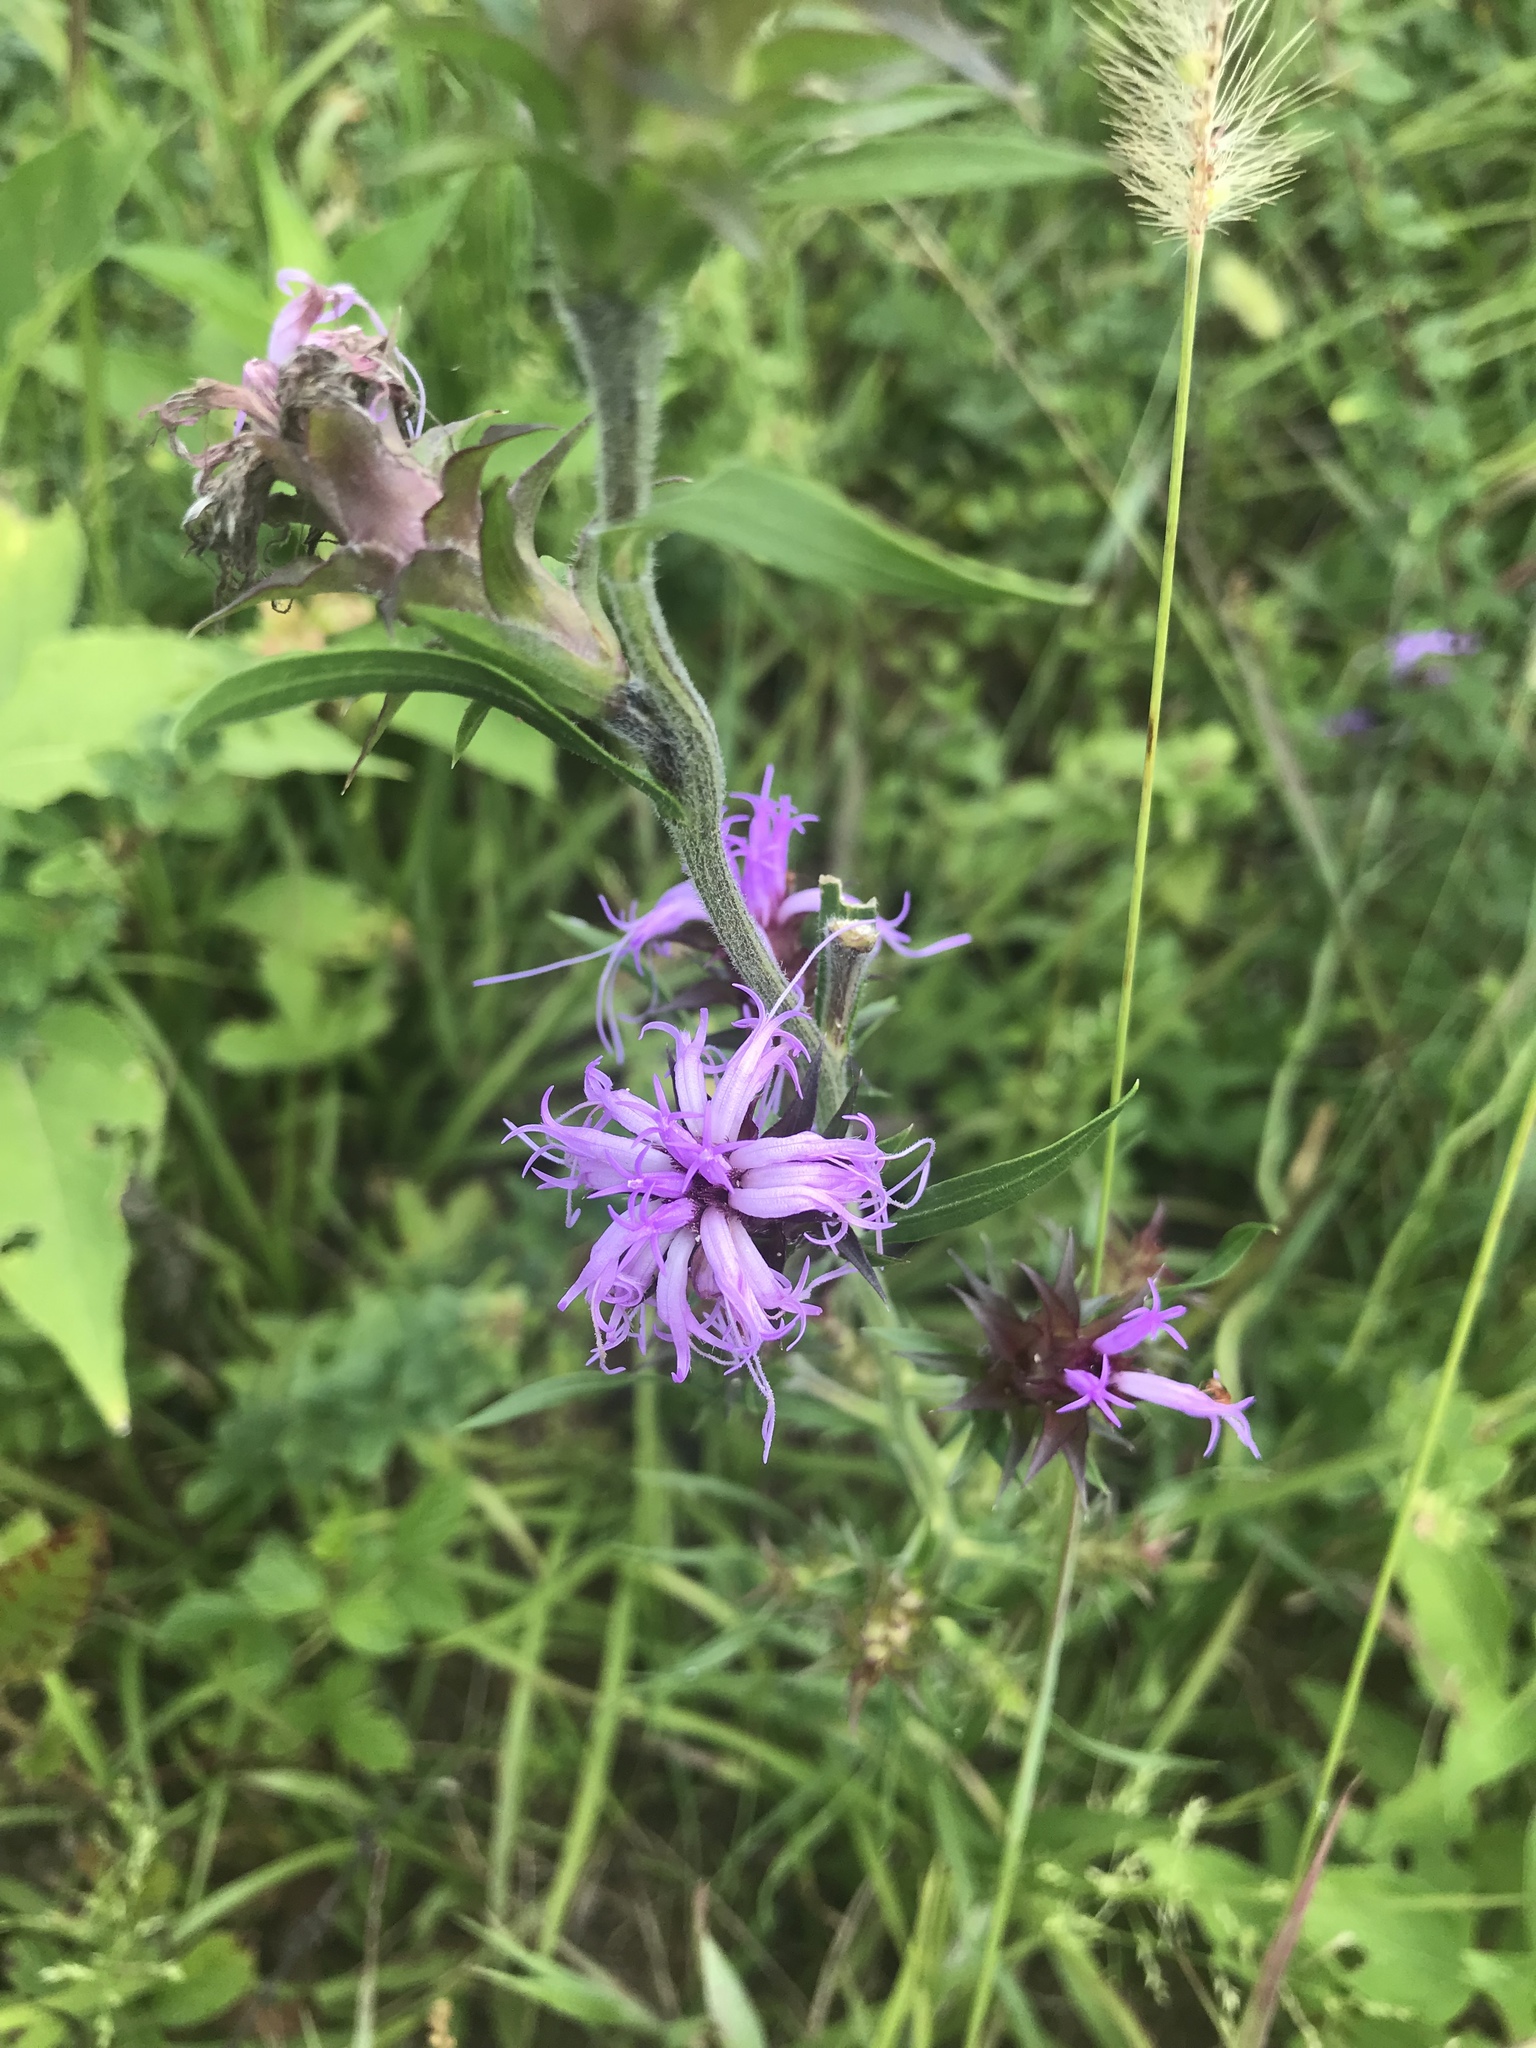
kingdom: Plantae
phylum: Tracheophyta
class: Magnoliopsida
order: Asterales
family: Asteraceae
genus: Liatris
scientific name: Liatris squarrosa
